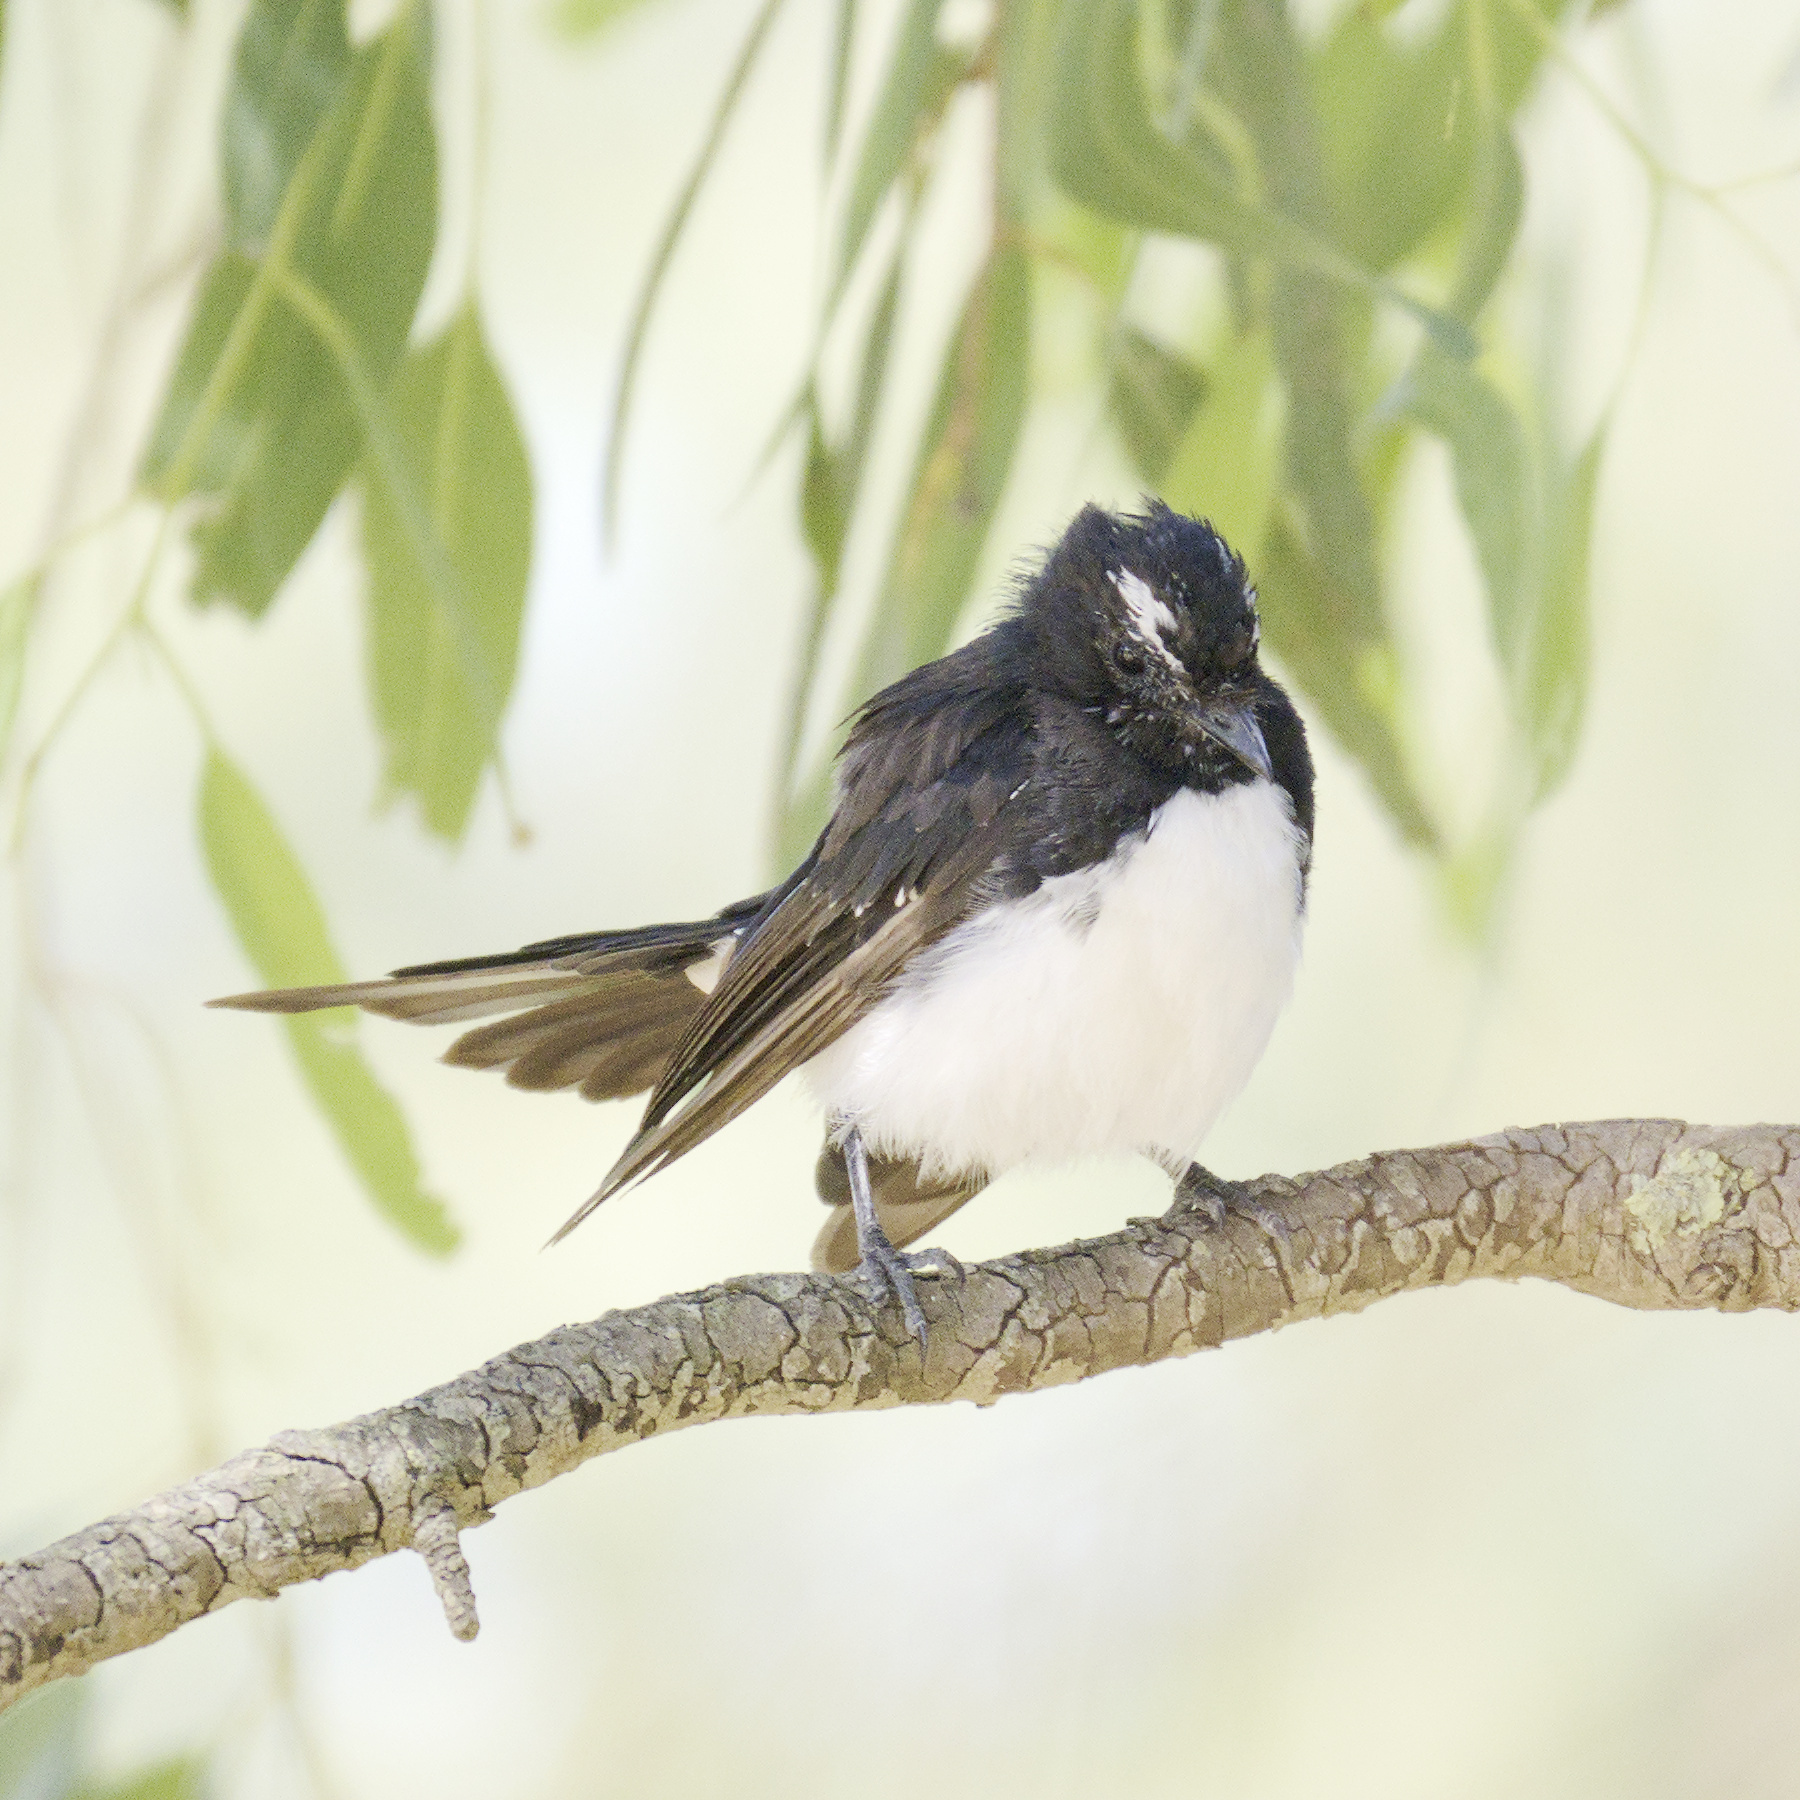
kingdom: Animalia
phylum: Chordata
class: Aves
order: Passeriformes
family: Rhipiduridae
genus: Rhipidura
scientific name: Rhipidura leucophrys
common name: Willie wagtail
